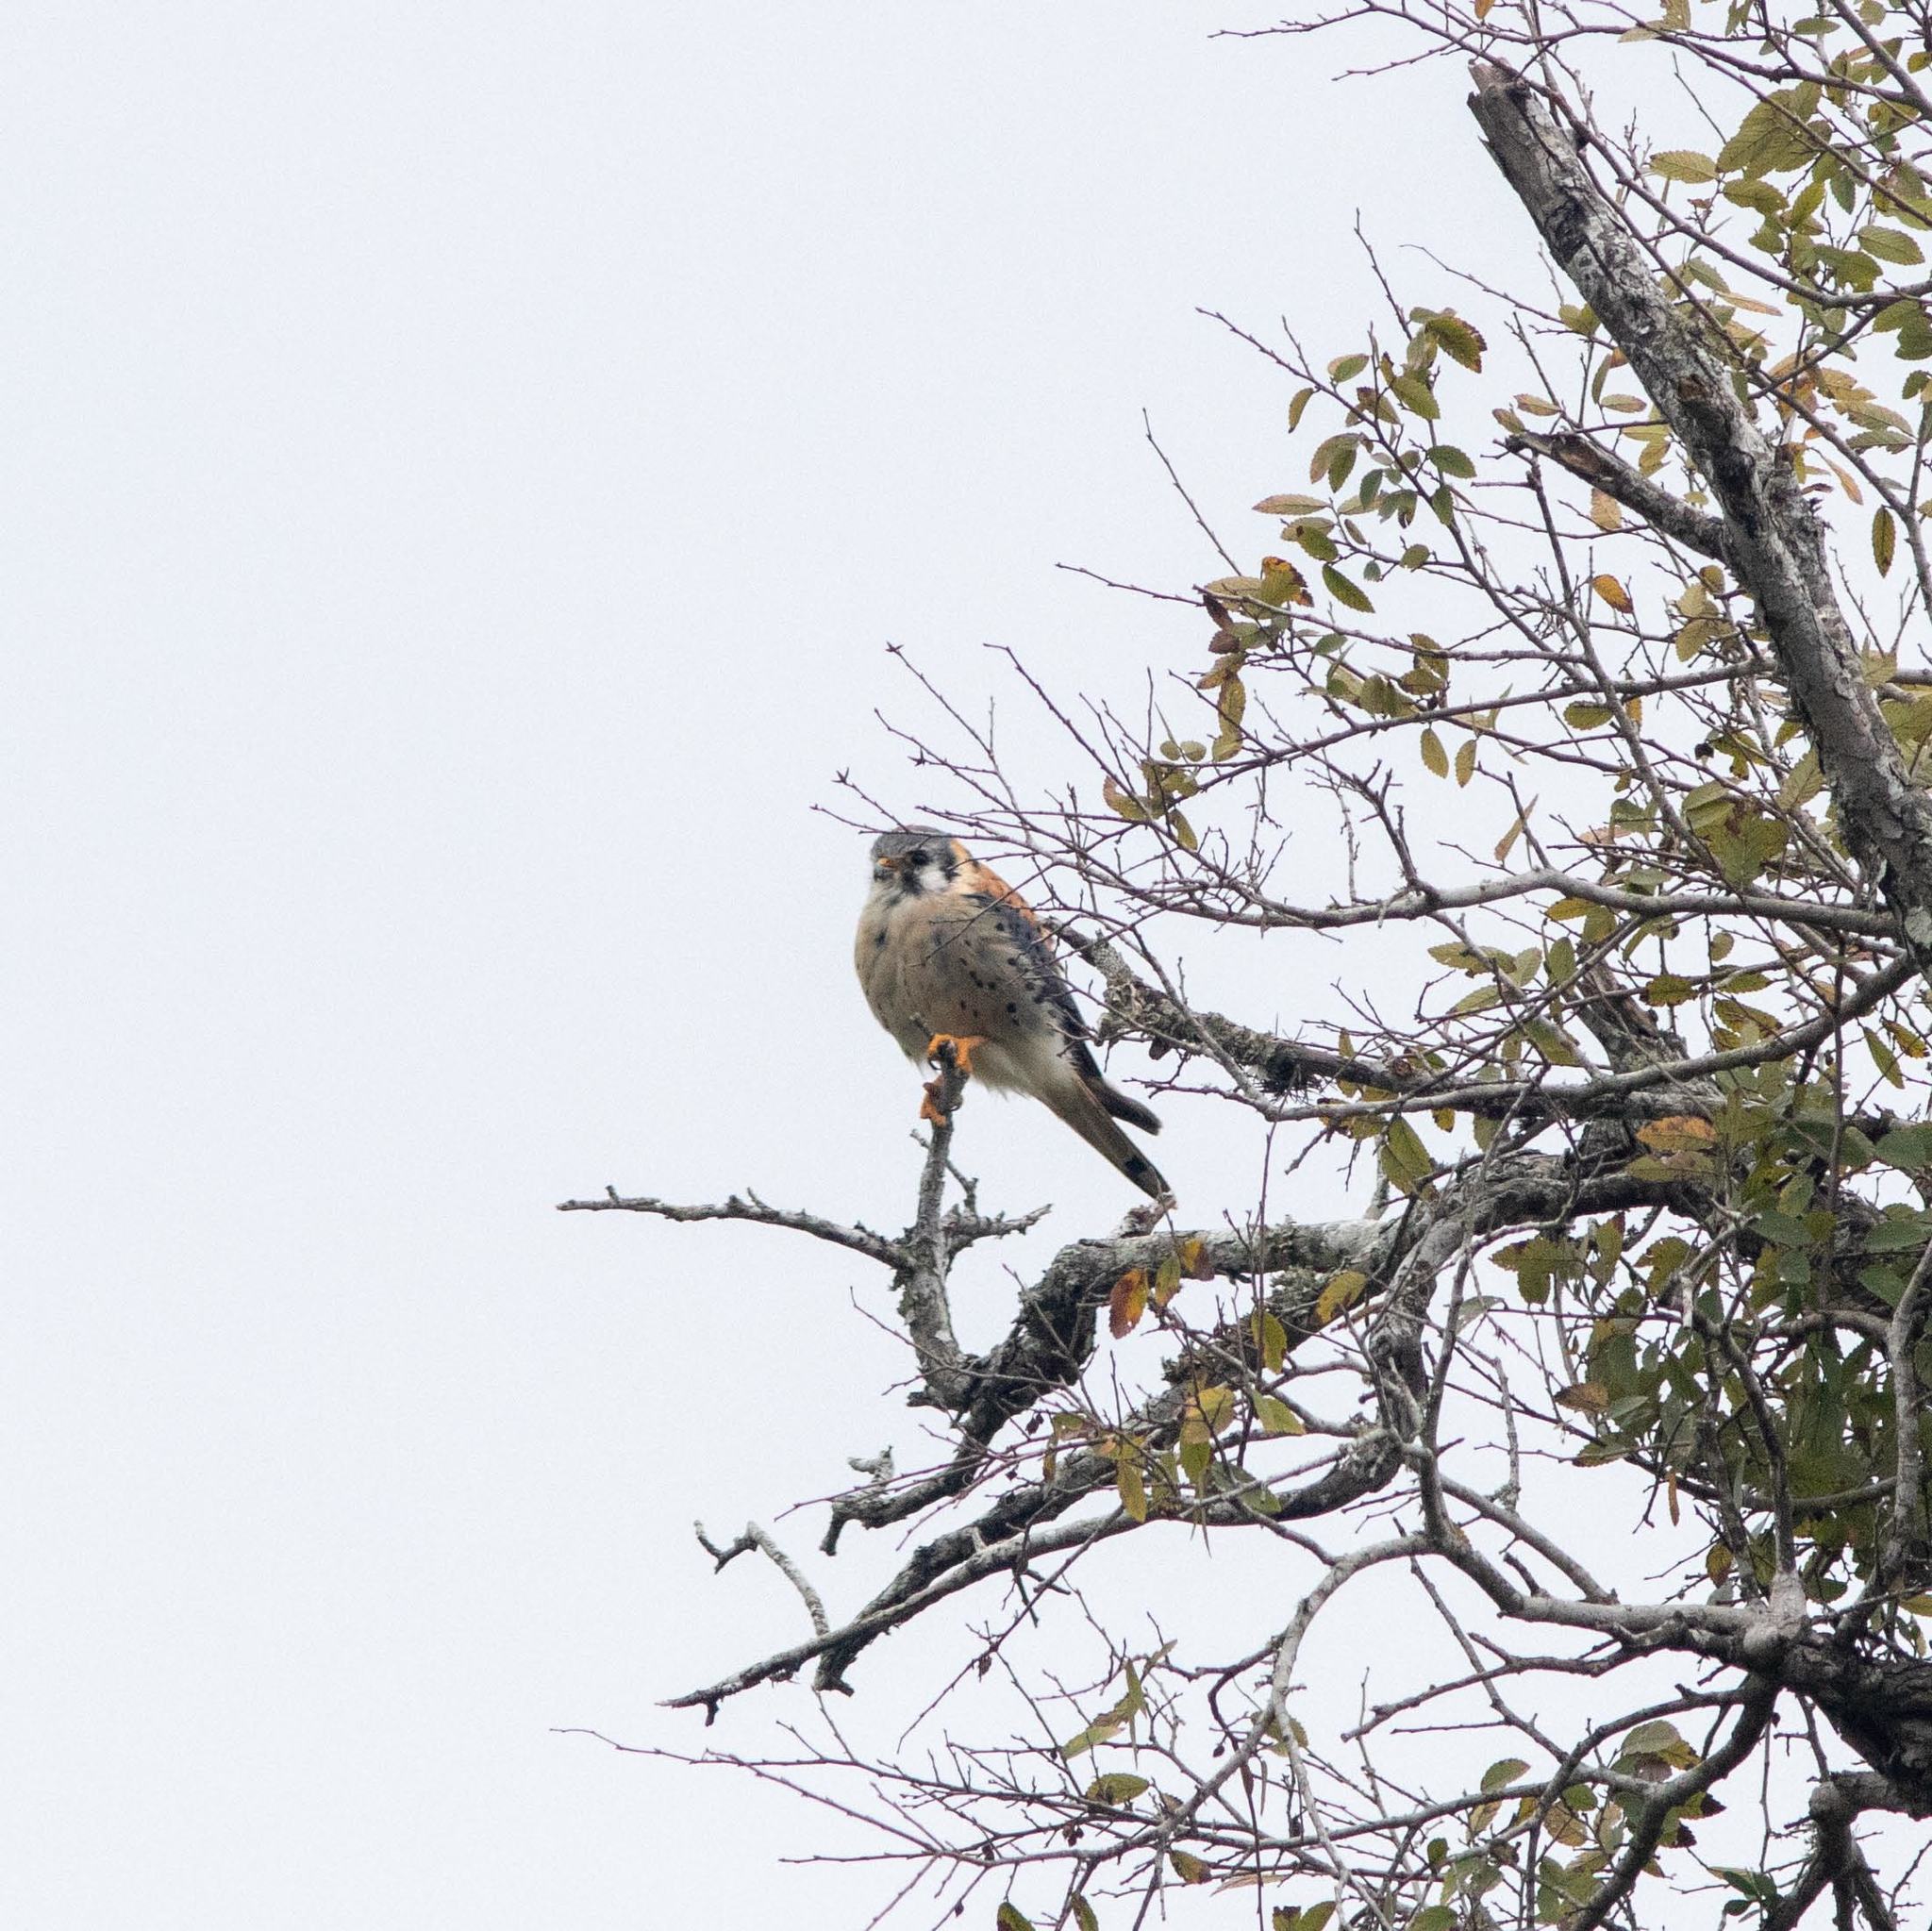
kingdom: Animalia
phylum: Chordata
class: Aves
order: Falconiformes
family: Falconidae
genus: Falco
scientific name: Falco sparverius
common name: American kestrel
